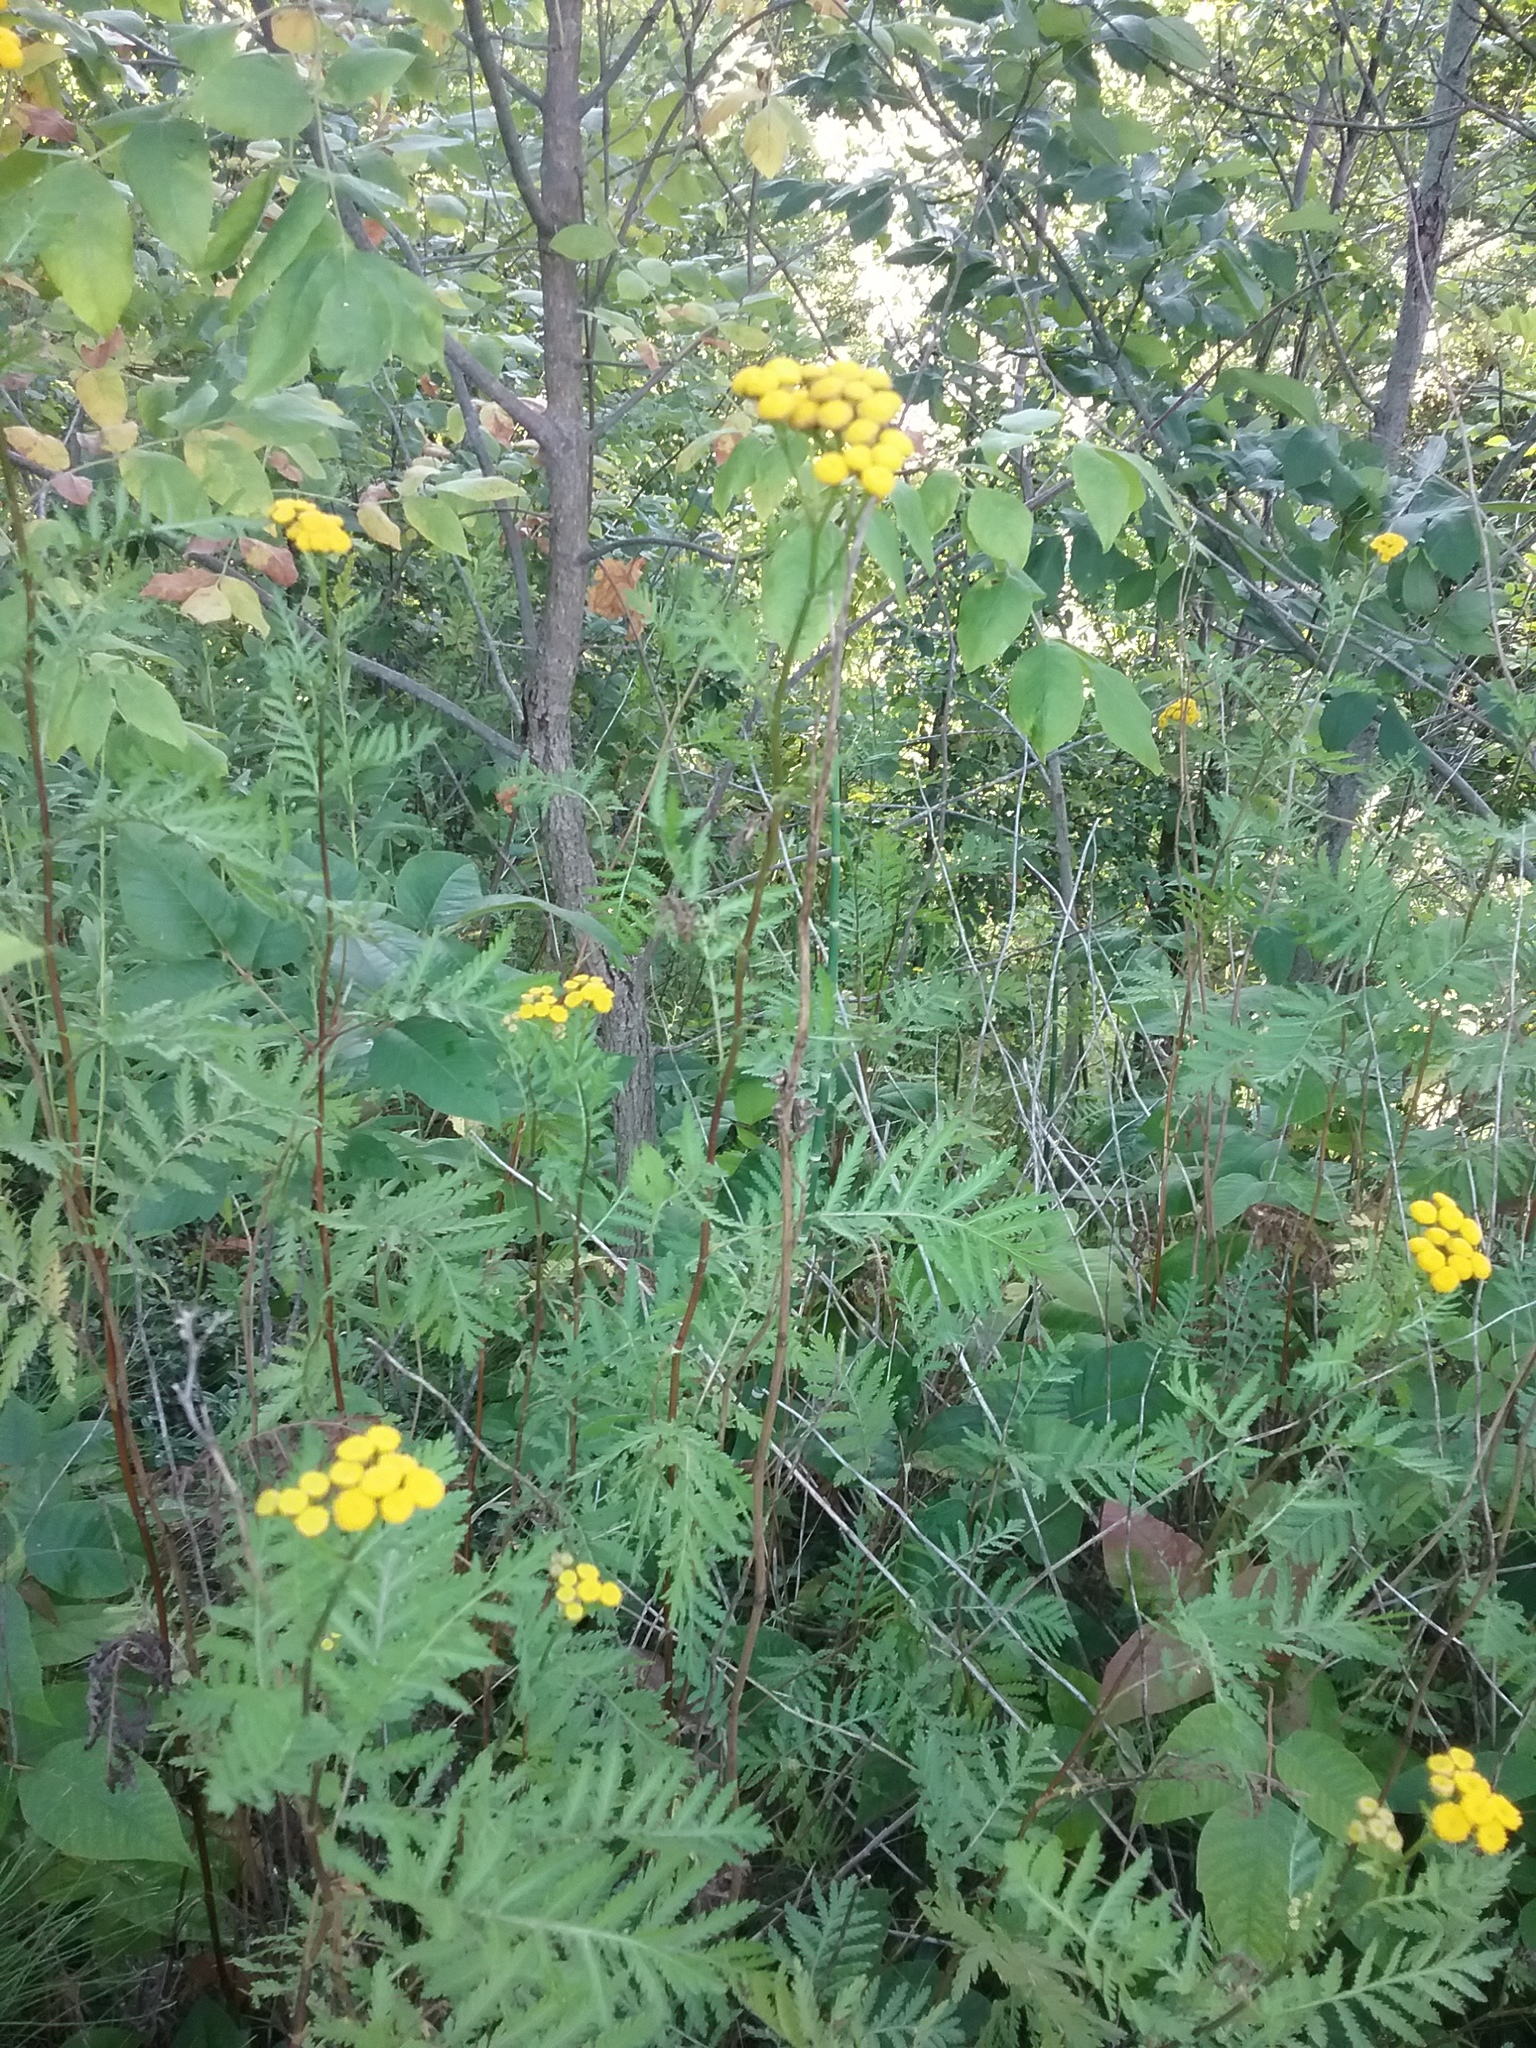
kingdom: Plantae
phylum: Tracheophyta
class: Magnoliopsida
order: Asterales
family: Asteraceae
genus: Tanacetum
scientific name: Tanacetum vulgare
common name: Common tansy
